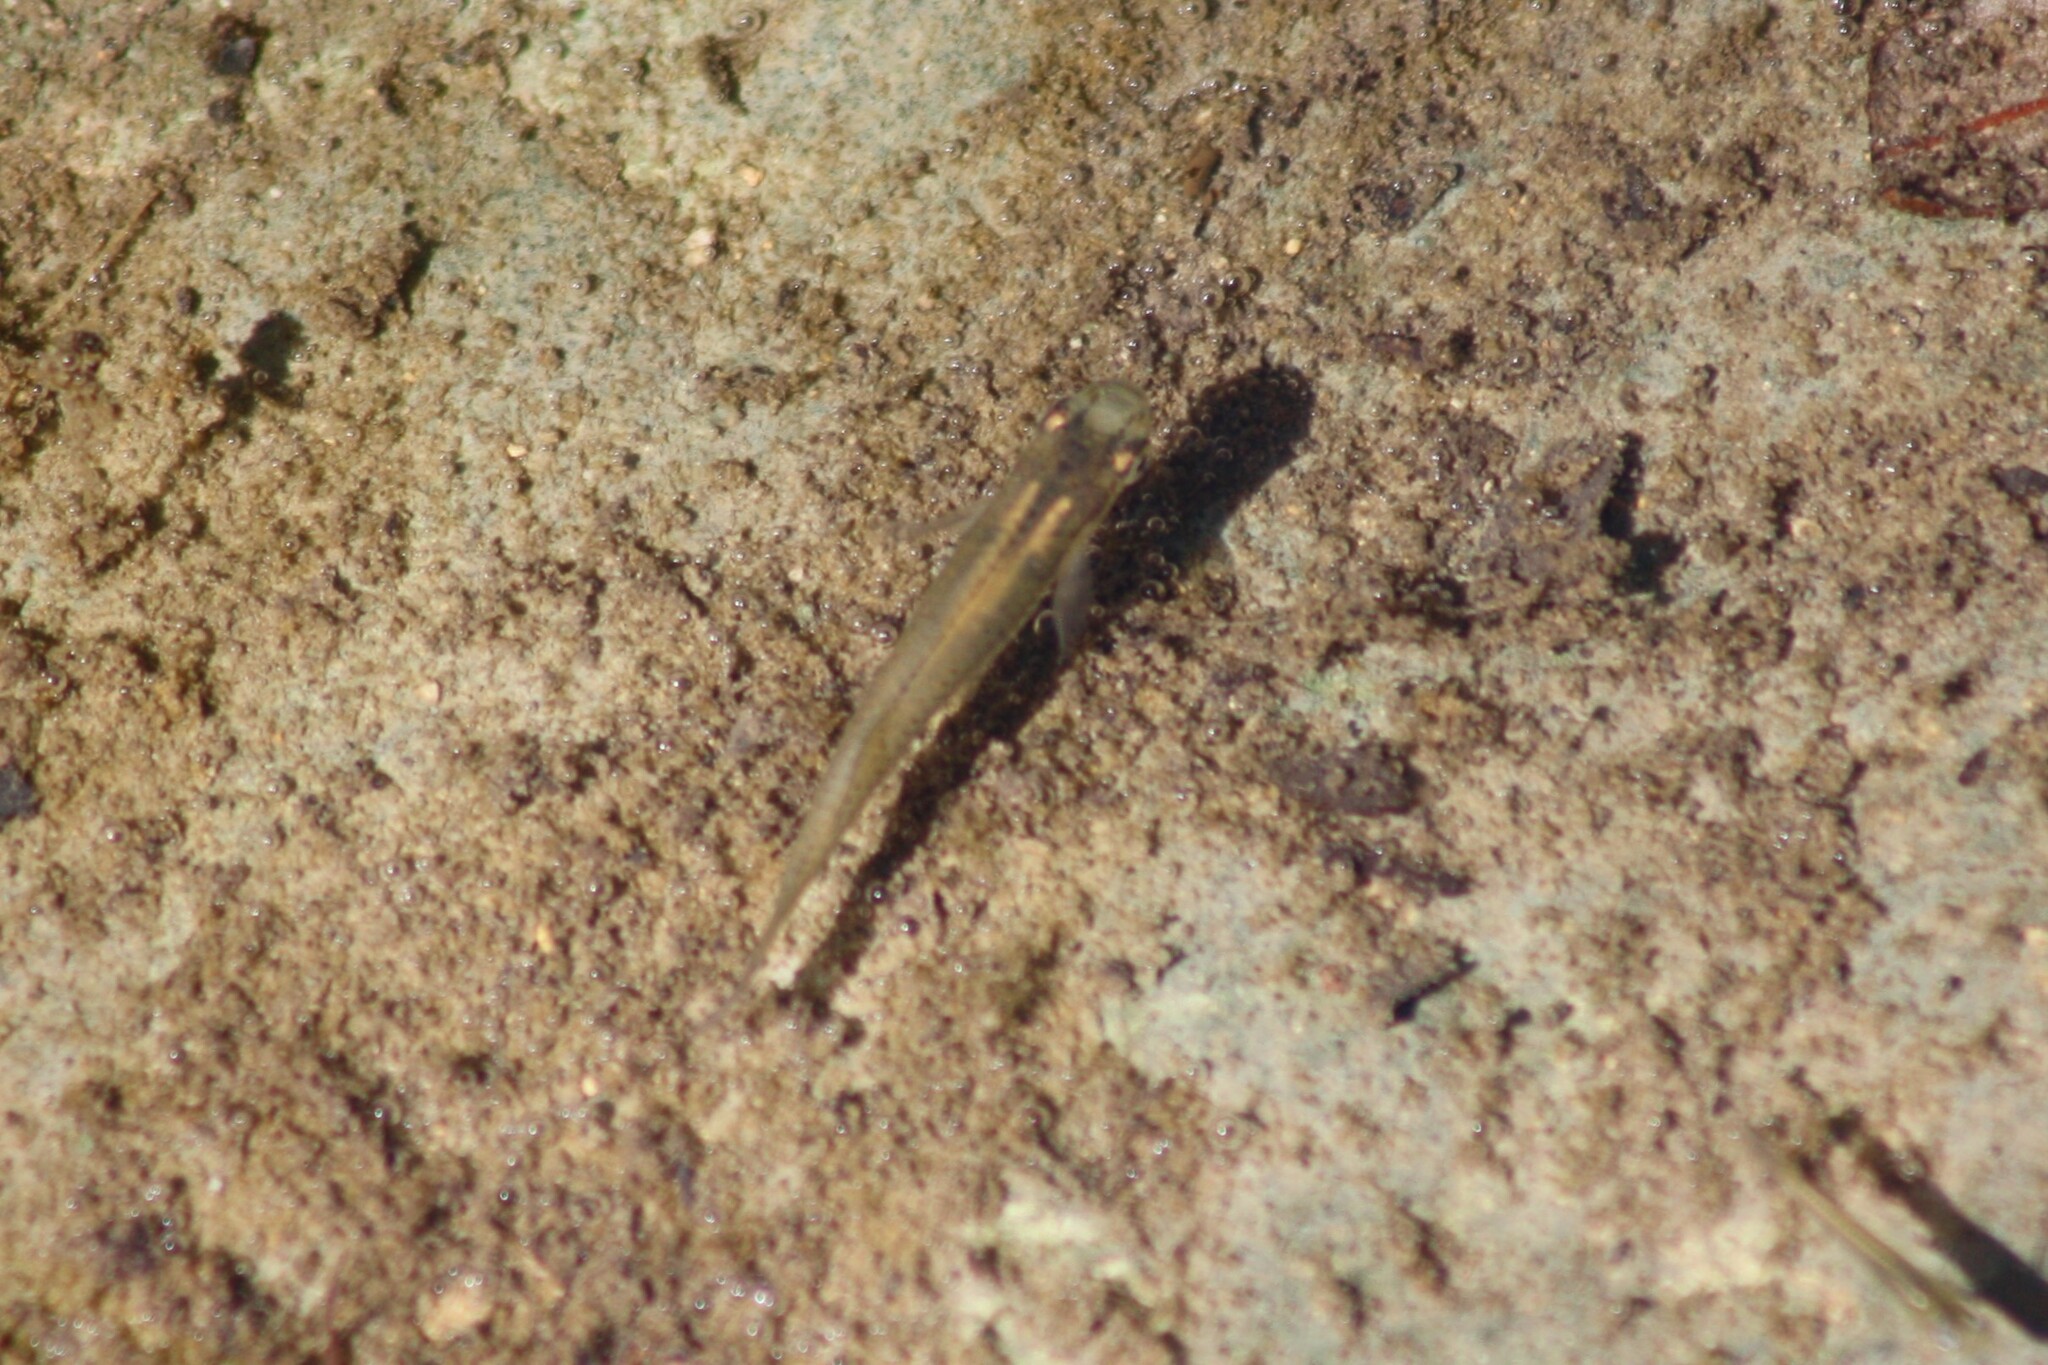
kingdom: Animalia
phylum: Chordata
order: Cyprinodontiformes
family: Poeciliidae
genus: Gambusia
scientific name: Gambusia affinis
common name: Mosquitofish
